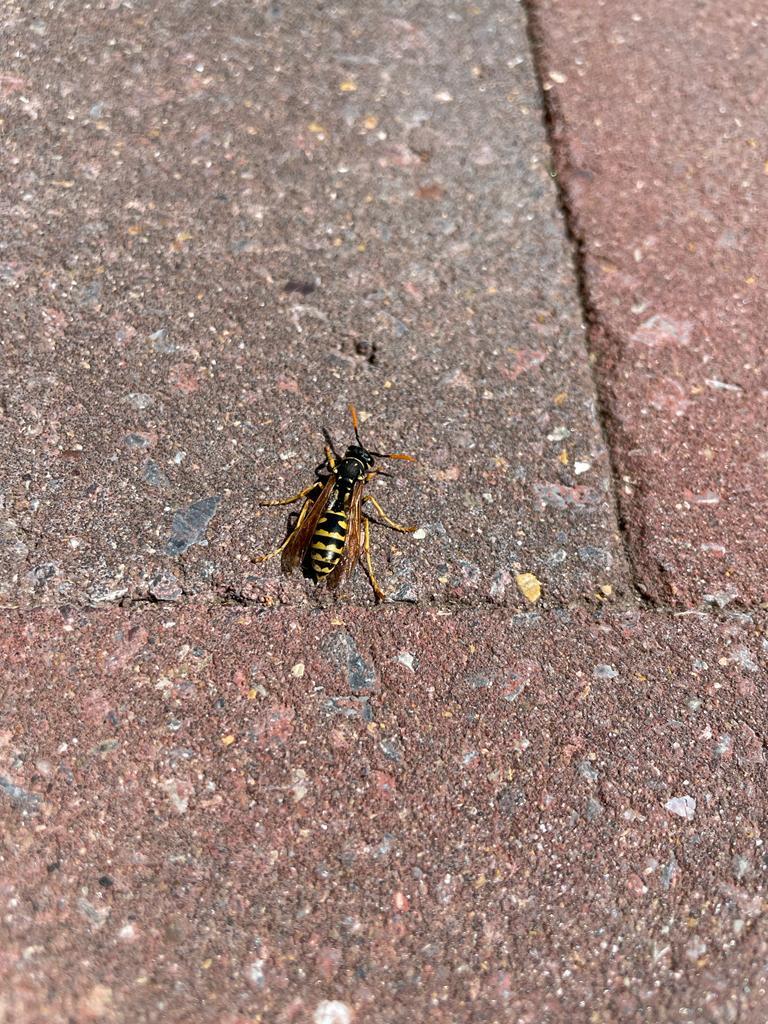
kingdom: Animalia
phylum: Arthropoda
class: Insecta
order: Hymenoptera
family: Eumenidae
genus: Polistes
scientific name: Polistes dominula
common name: Paper wasp
